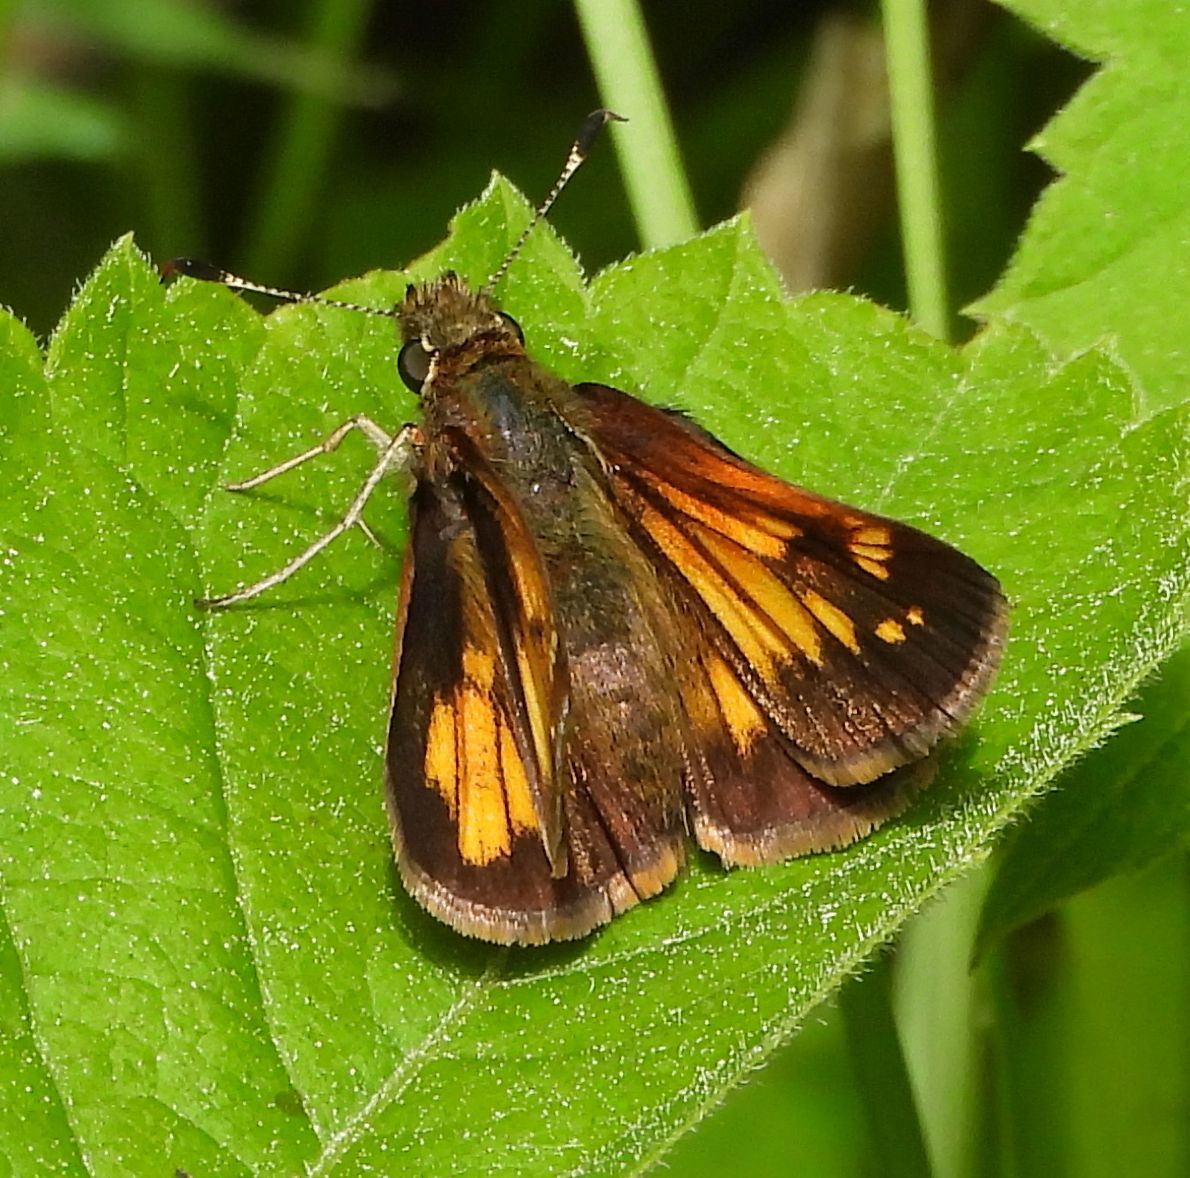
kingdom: Animalia
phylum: Arthropoda
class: Insecta
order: Lepidoptera
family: Hesperiidae
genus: Lon
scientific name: Lon hobomok
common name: Hobomok skipper
